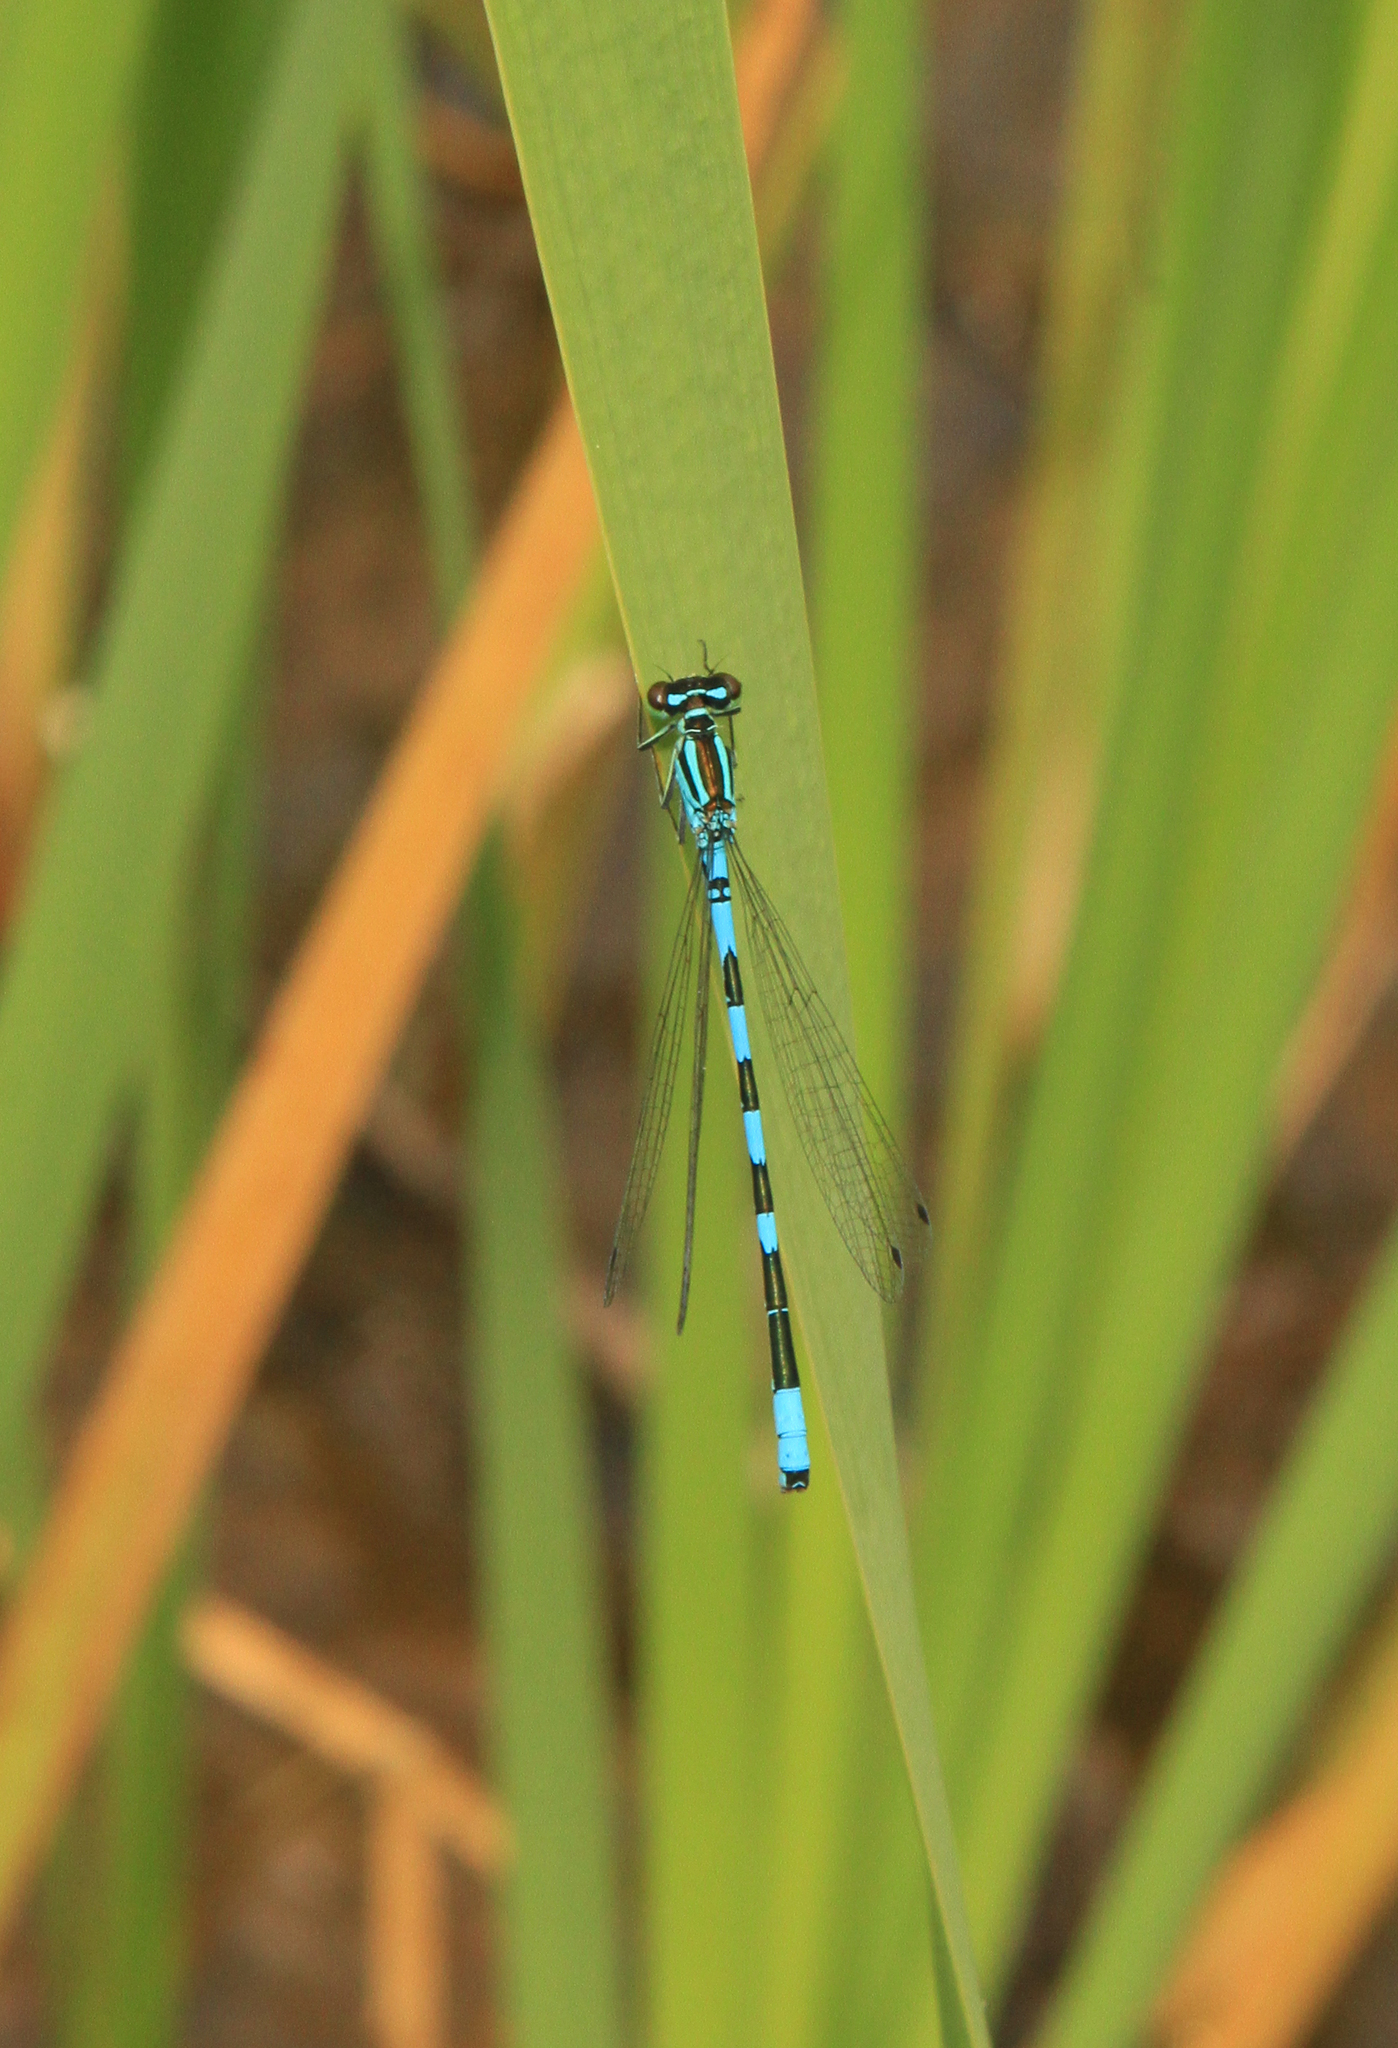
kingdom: Animalia
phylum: Arthropoda
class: Insecta
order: Odonata
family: Coenagrionidae
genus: Coenagrion
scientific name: Coenagrion hastulatum
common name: Spearhead bluet
